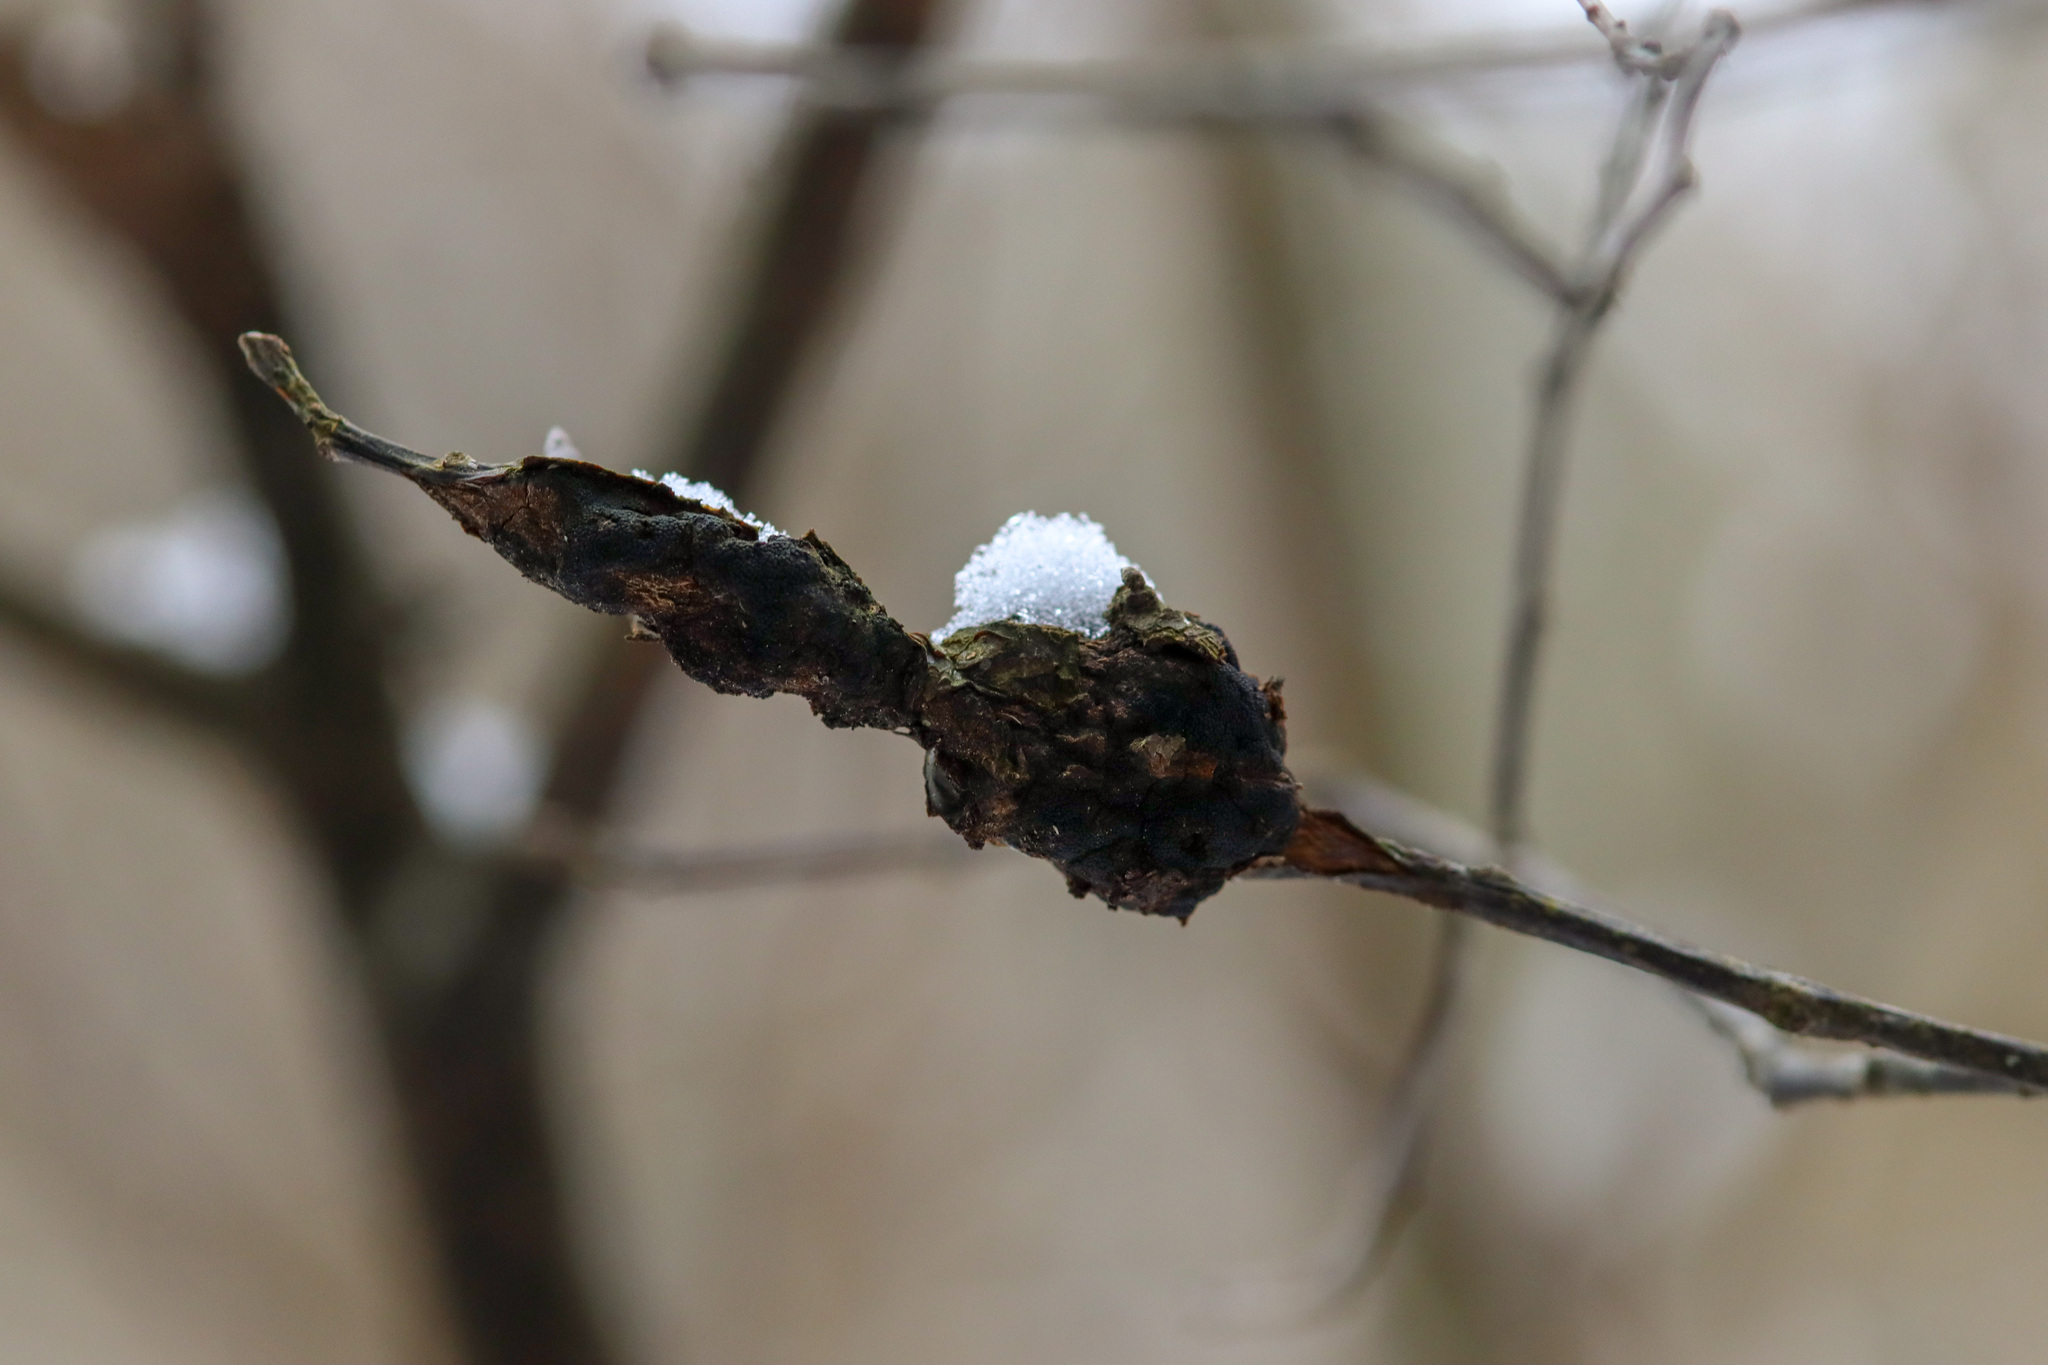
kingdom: Fungi
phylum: Ascomycota
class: Dothideomycetes
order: Venturiales
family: Venturiaceae
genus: Apiosporina
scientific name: Apiosporina morbosa
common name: Black knot
